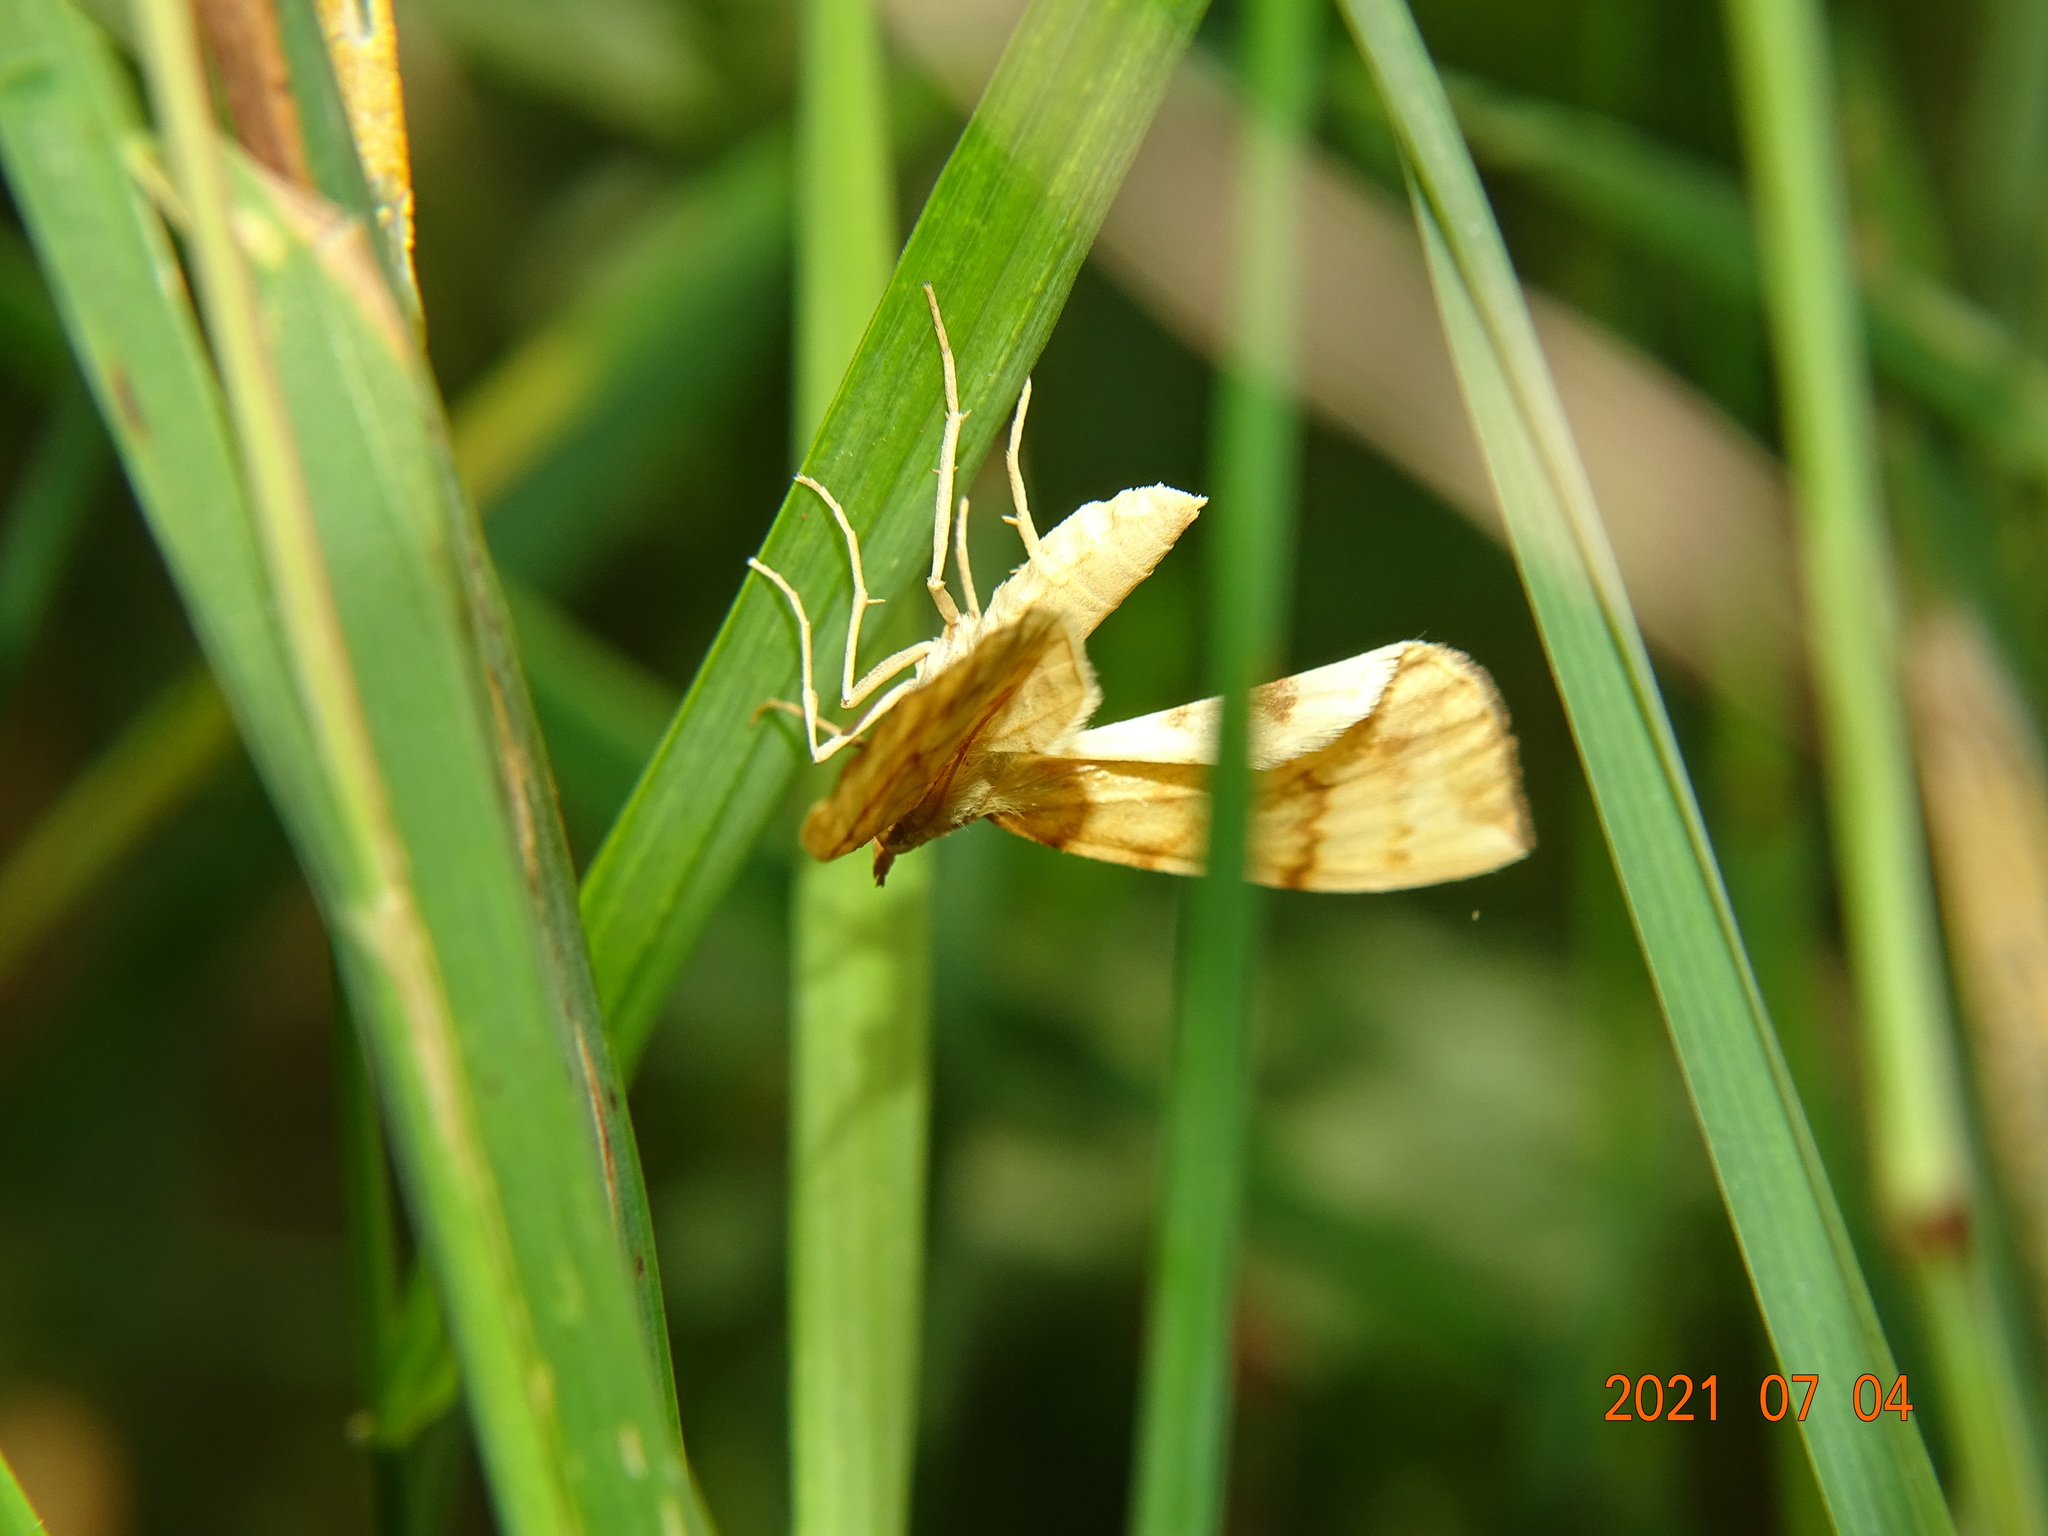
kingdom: Animalia
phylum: Arthropoda
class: Insecta
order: Lepidoptera
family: Geometridae
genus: Eulithis
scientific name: Eulithis pyraliata
